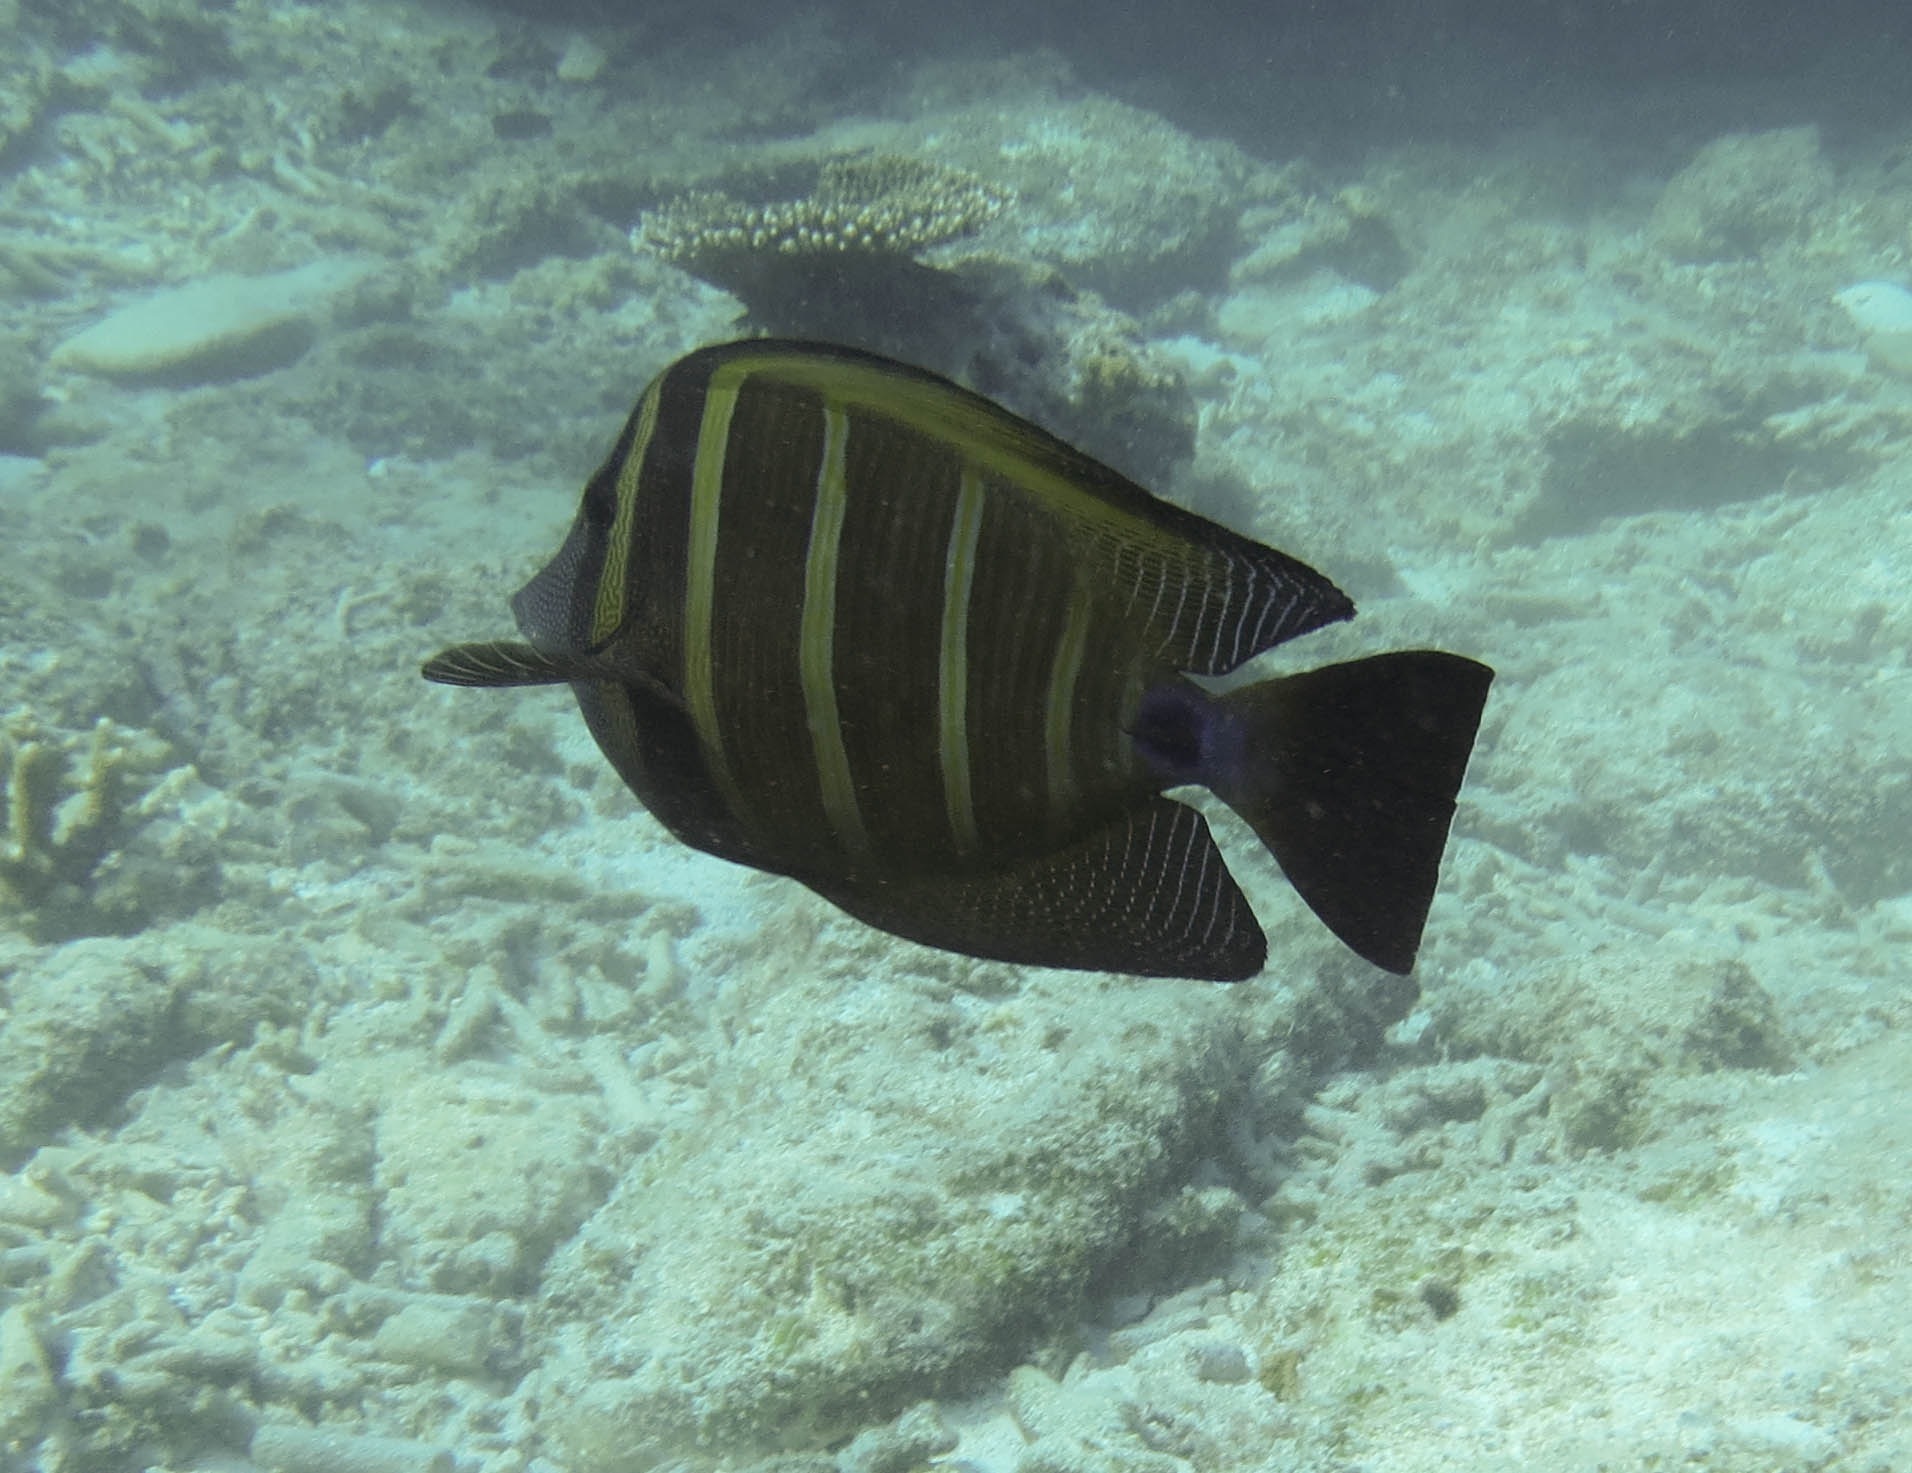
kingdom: Animalia
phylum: Chordata
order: Perciformes
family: Acanthuridae
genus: Zebrasoma
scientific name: Zebrasoma veliferum
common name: Sailfin surgeonfish
